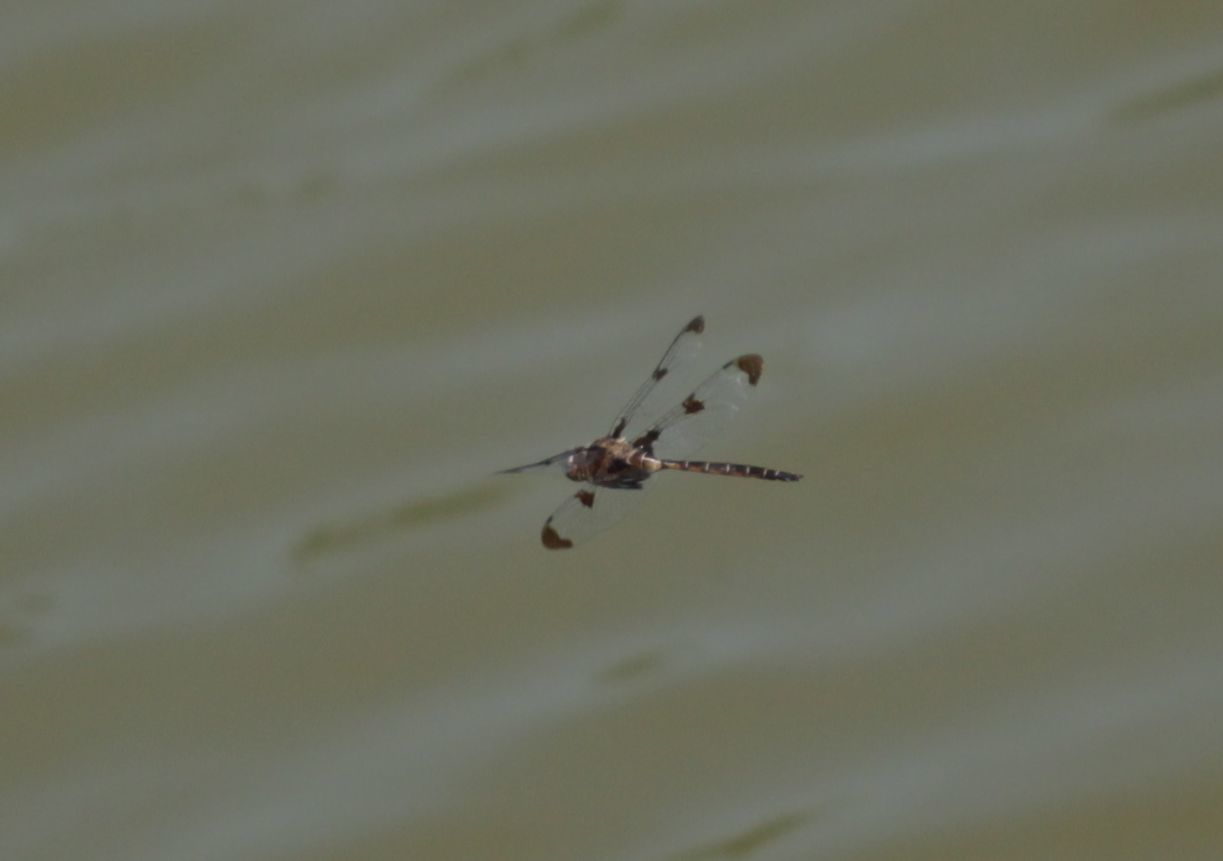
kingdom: Animalia
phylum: Arthropoda
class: Insecta
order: Odonata
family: Corduliidae
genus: Epitheca
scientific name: Epitheca princeps
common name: Prince baskettail
